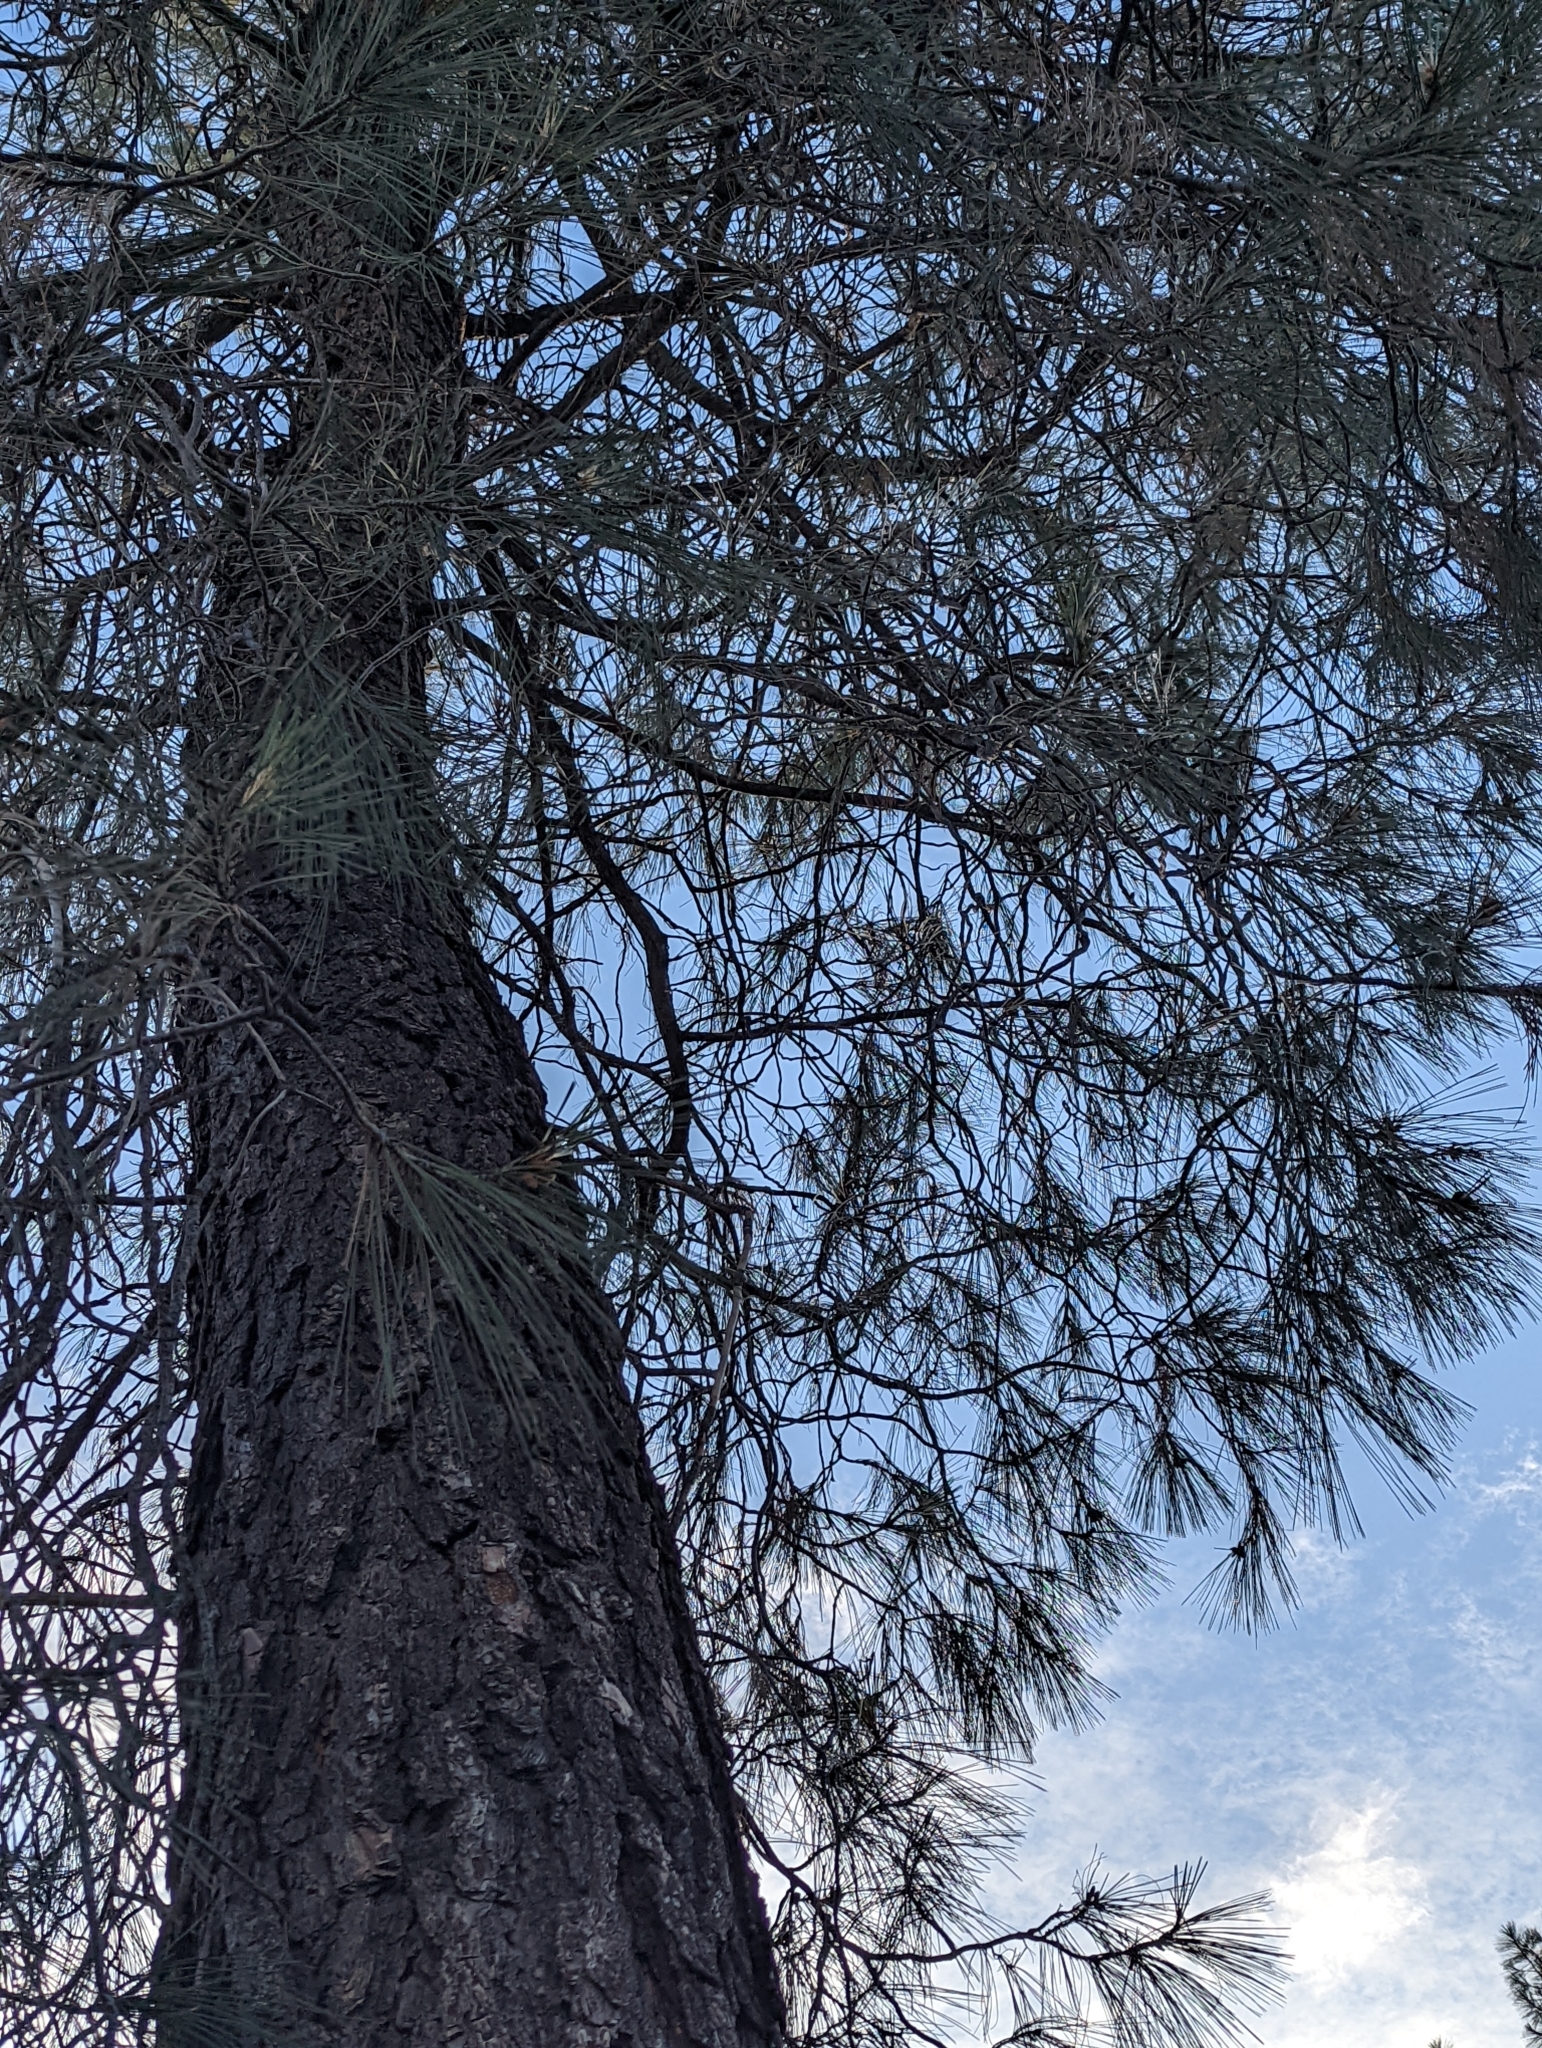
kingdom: Plantae
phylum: Tracheophyta
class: Pinopsida
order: Pinales
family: Pinaceae
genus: Pinus
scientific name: Pinus sabiniana
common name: Bull pine
